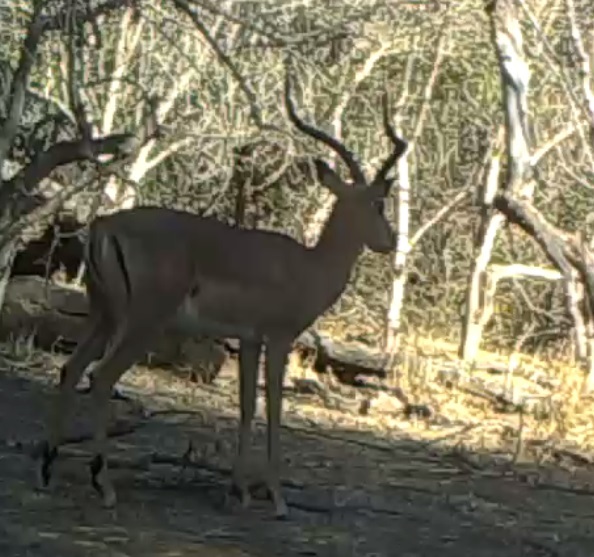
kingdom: Animalia
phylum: Chordata
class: Mammalia
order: Artiodactyla
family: Bovidae
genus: Aepyceros
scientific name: Aepyceros melampus
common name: Impala
